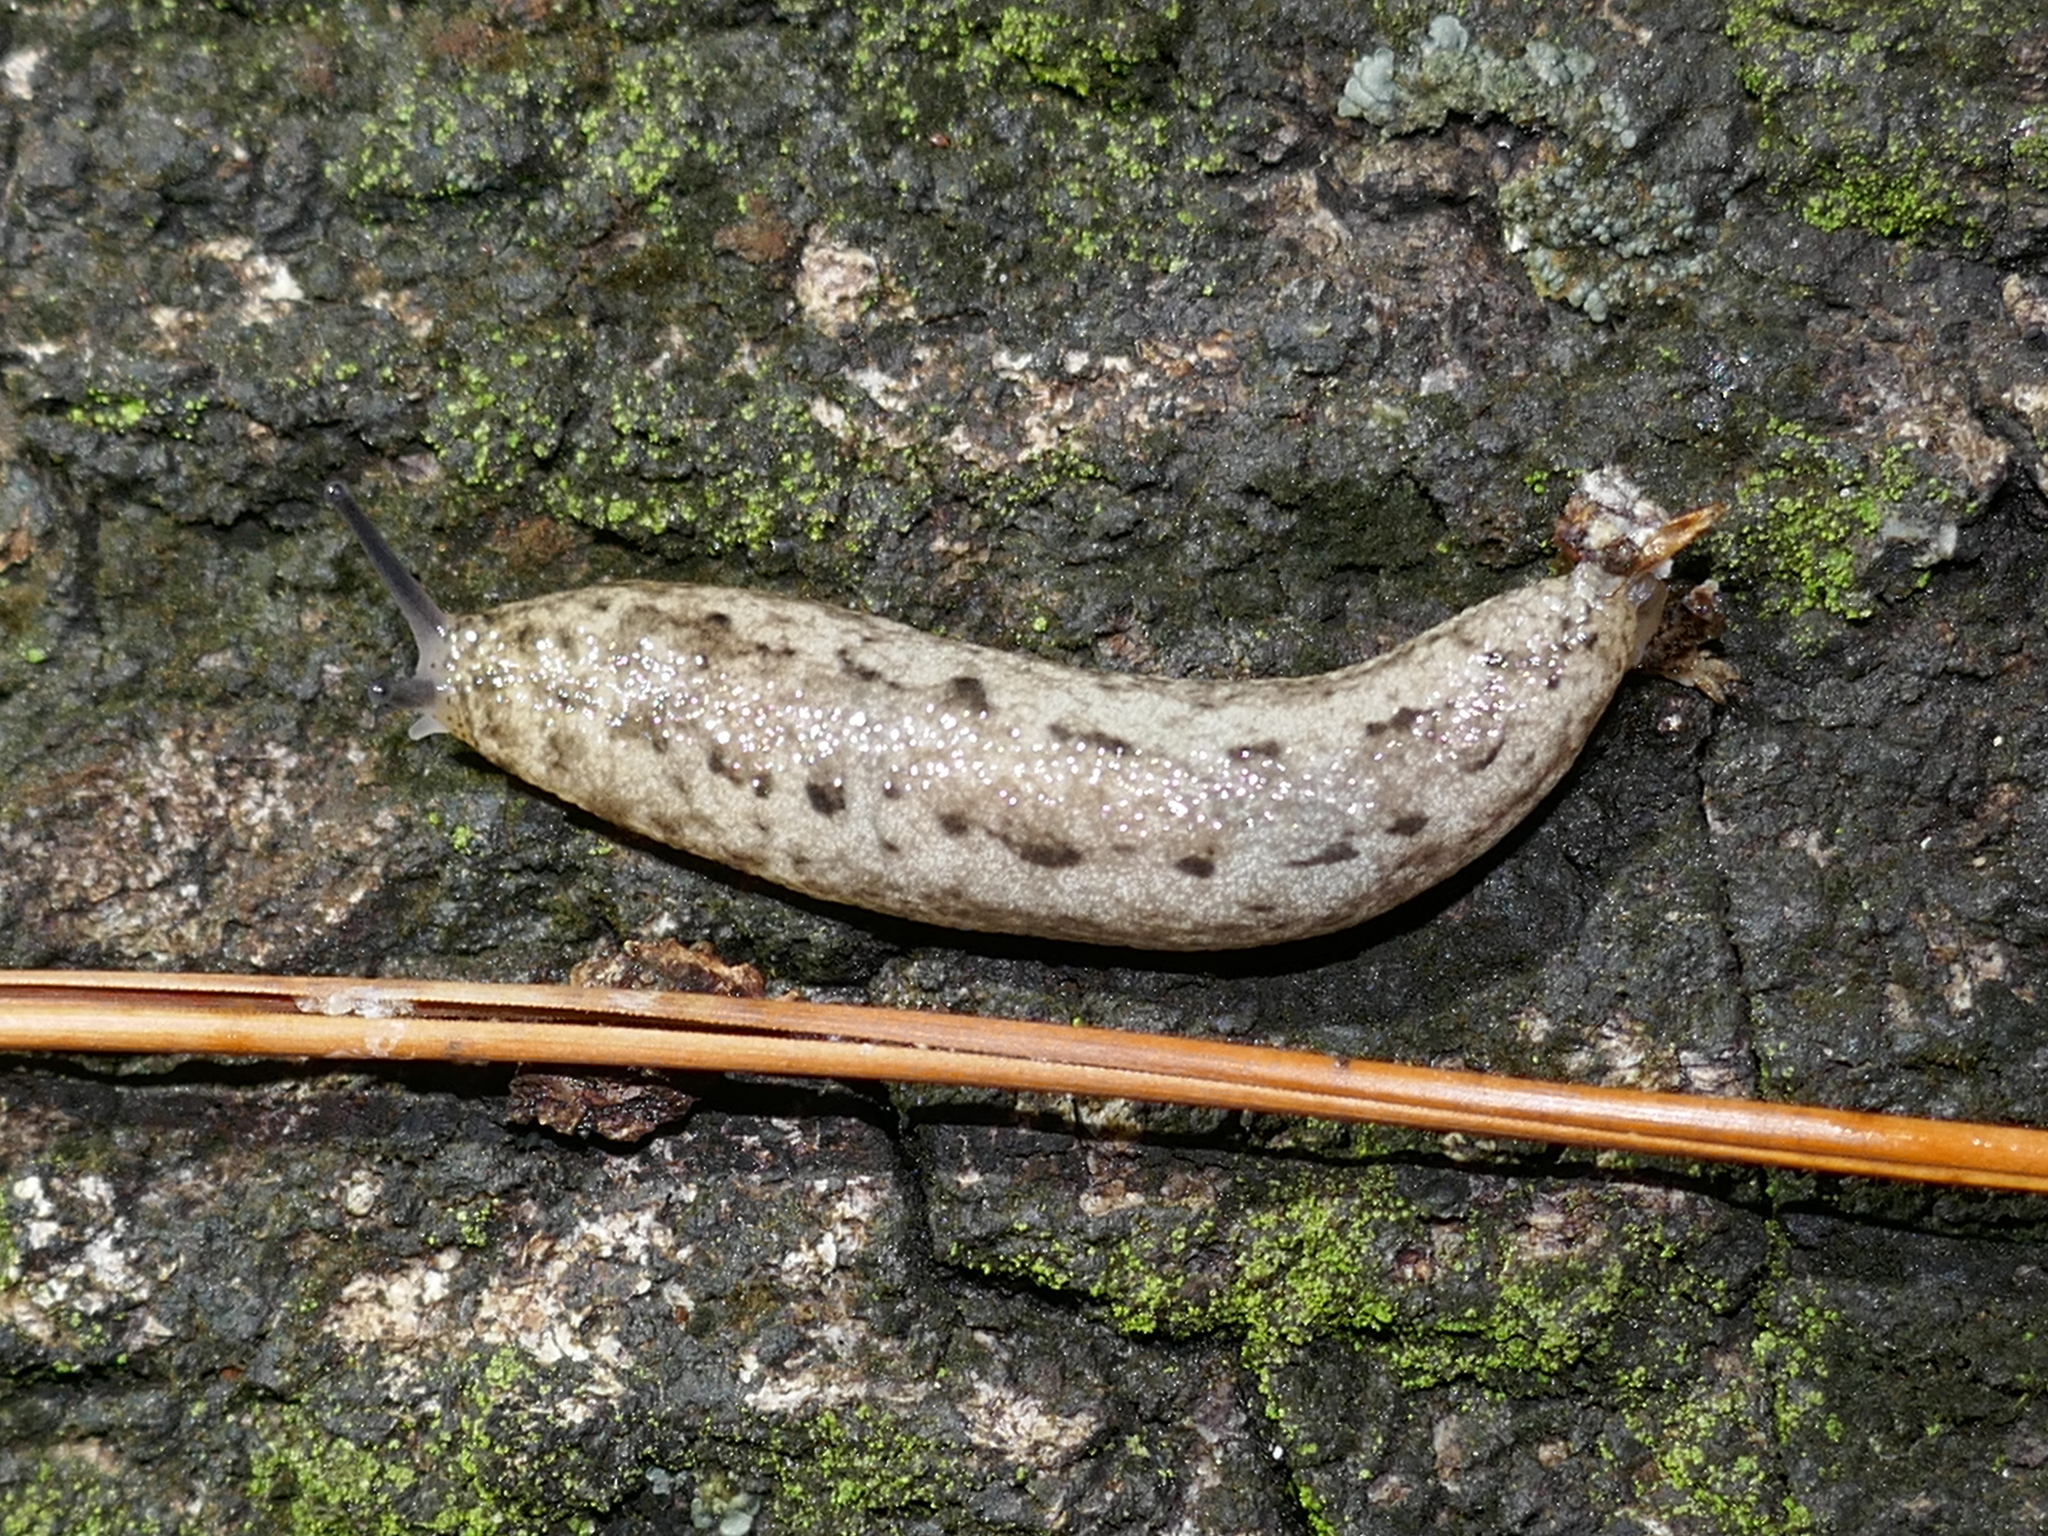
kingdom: Animalia
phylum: Mollusca
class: Gastropoda
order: Stylommatophora
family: Philomycidae
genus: Philomycus
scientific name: Philomycus carolinianus
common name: Carolina mantleslug
